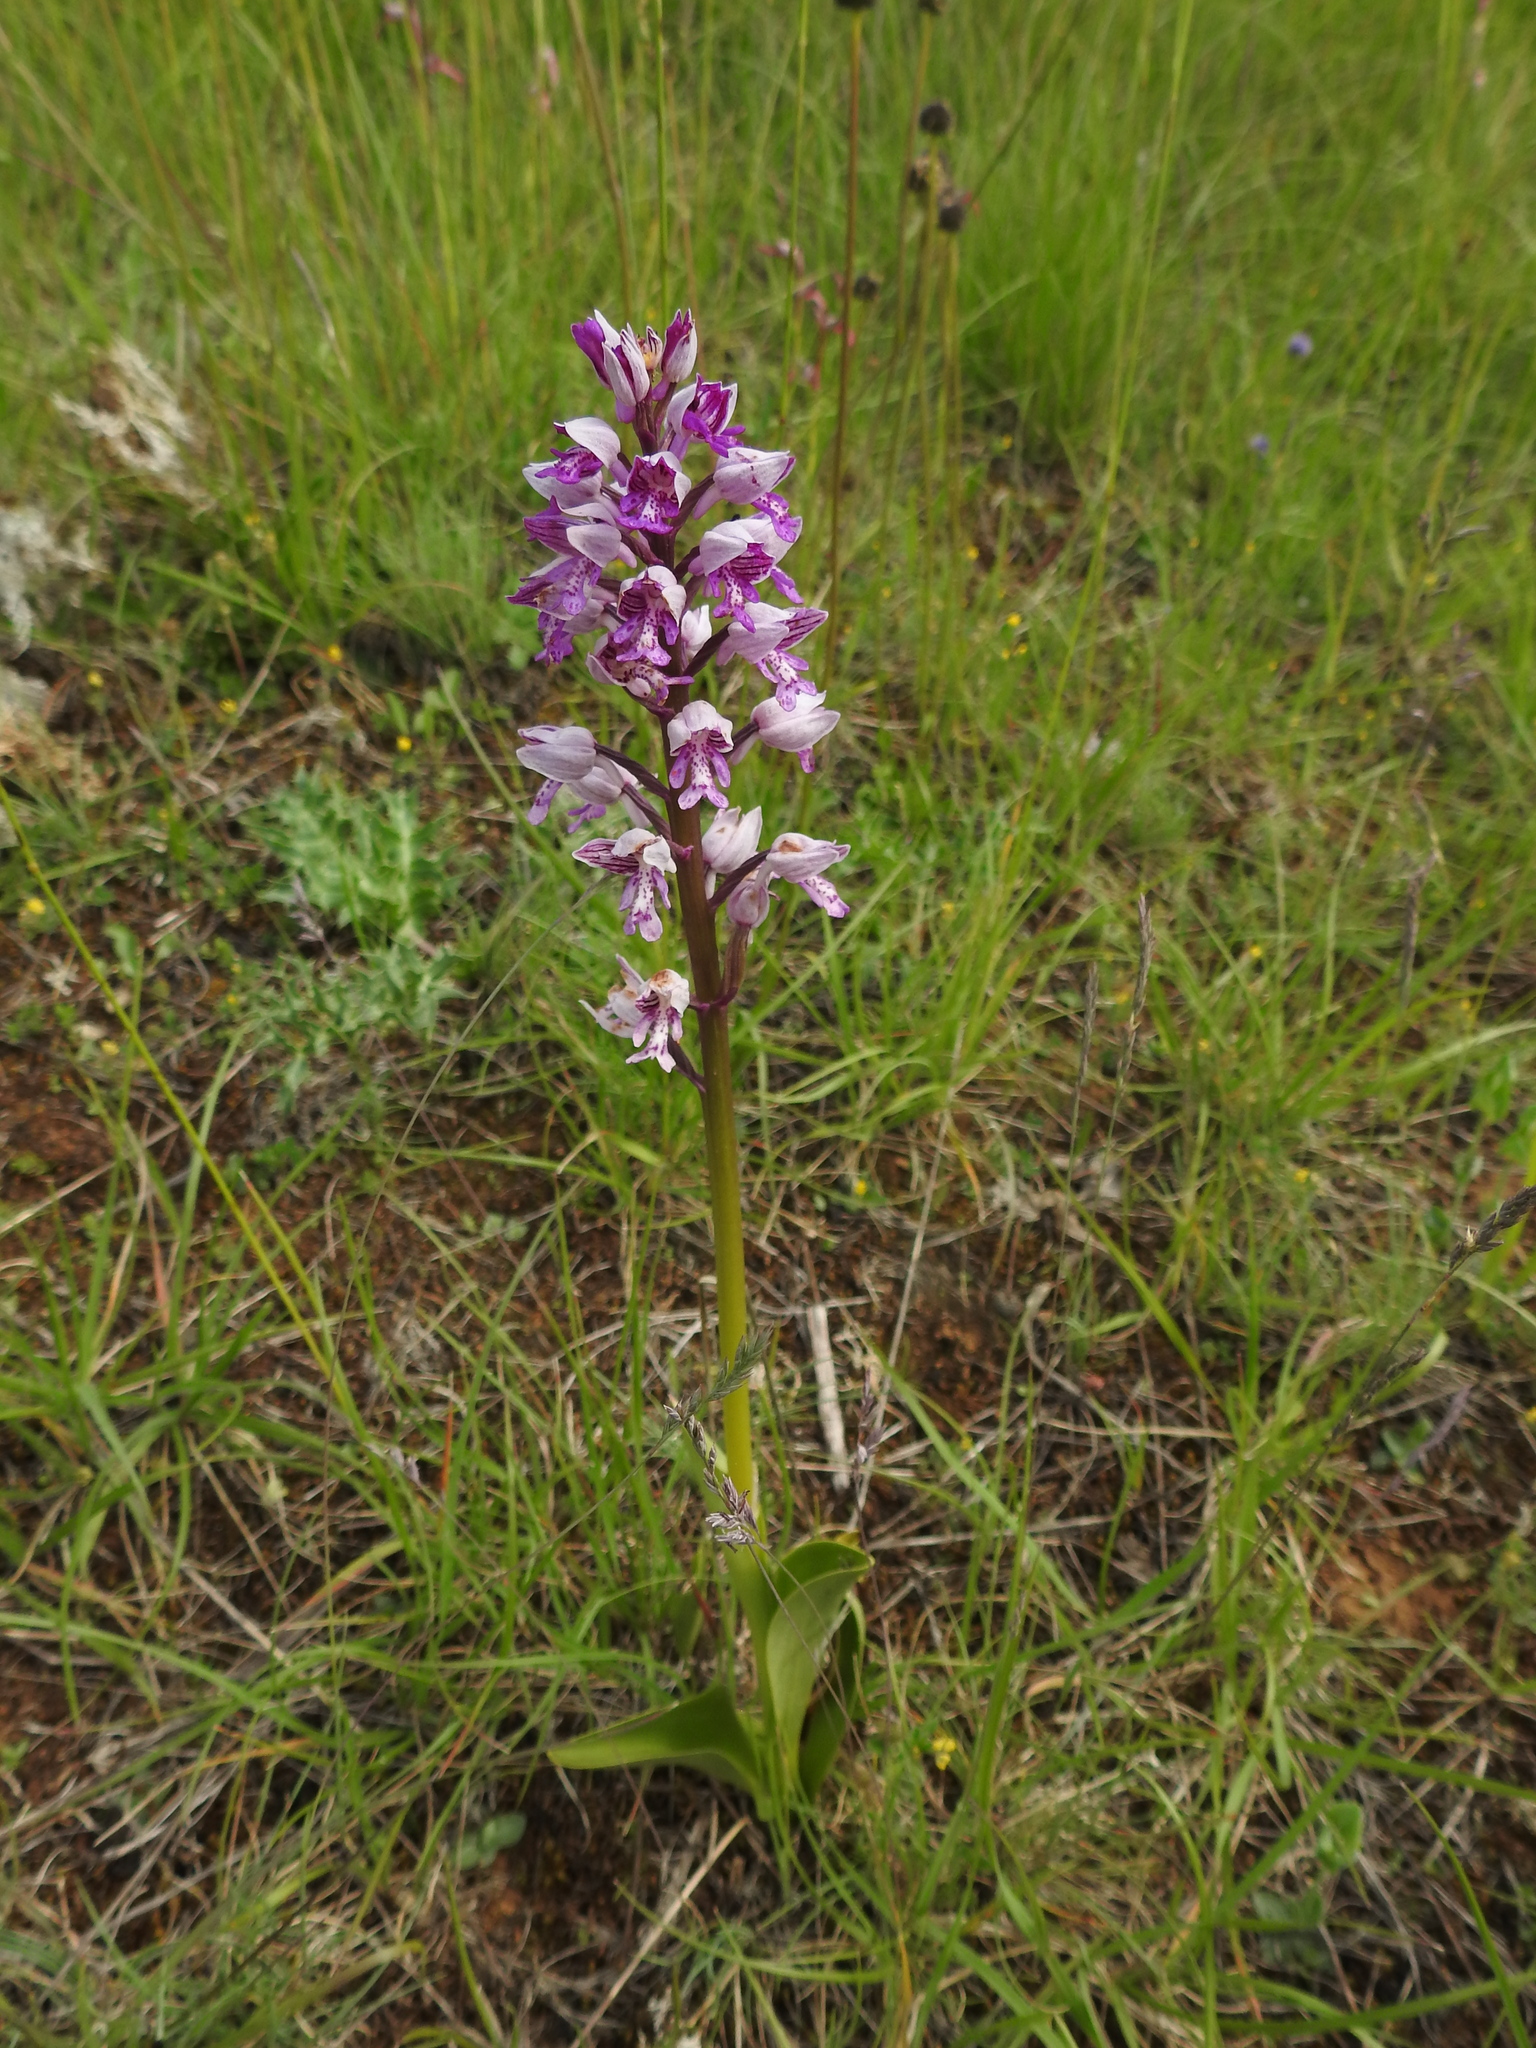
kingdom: Plantae
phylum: Tracheophyta
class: Liliopsida
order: Asparagales
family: Orchidaceae
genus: Orchis
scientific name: Orchis militaris
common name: Military orchid
